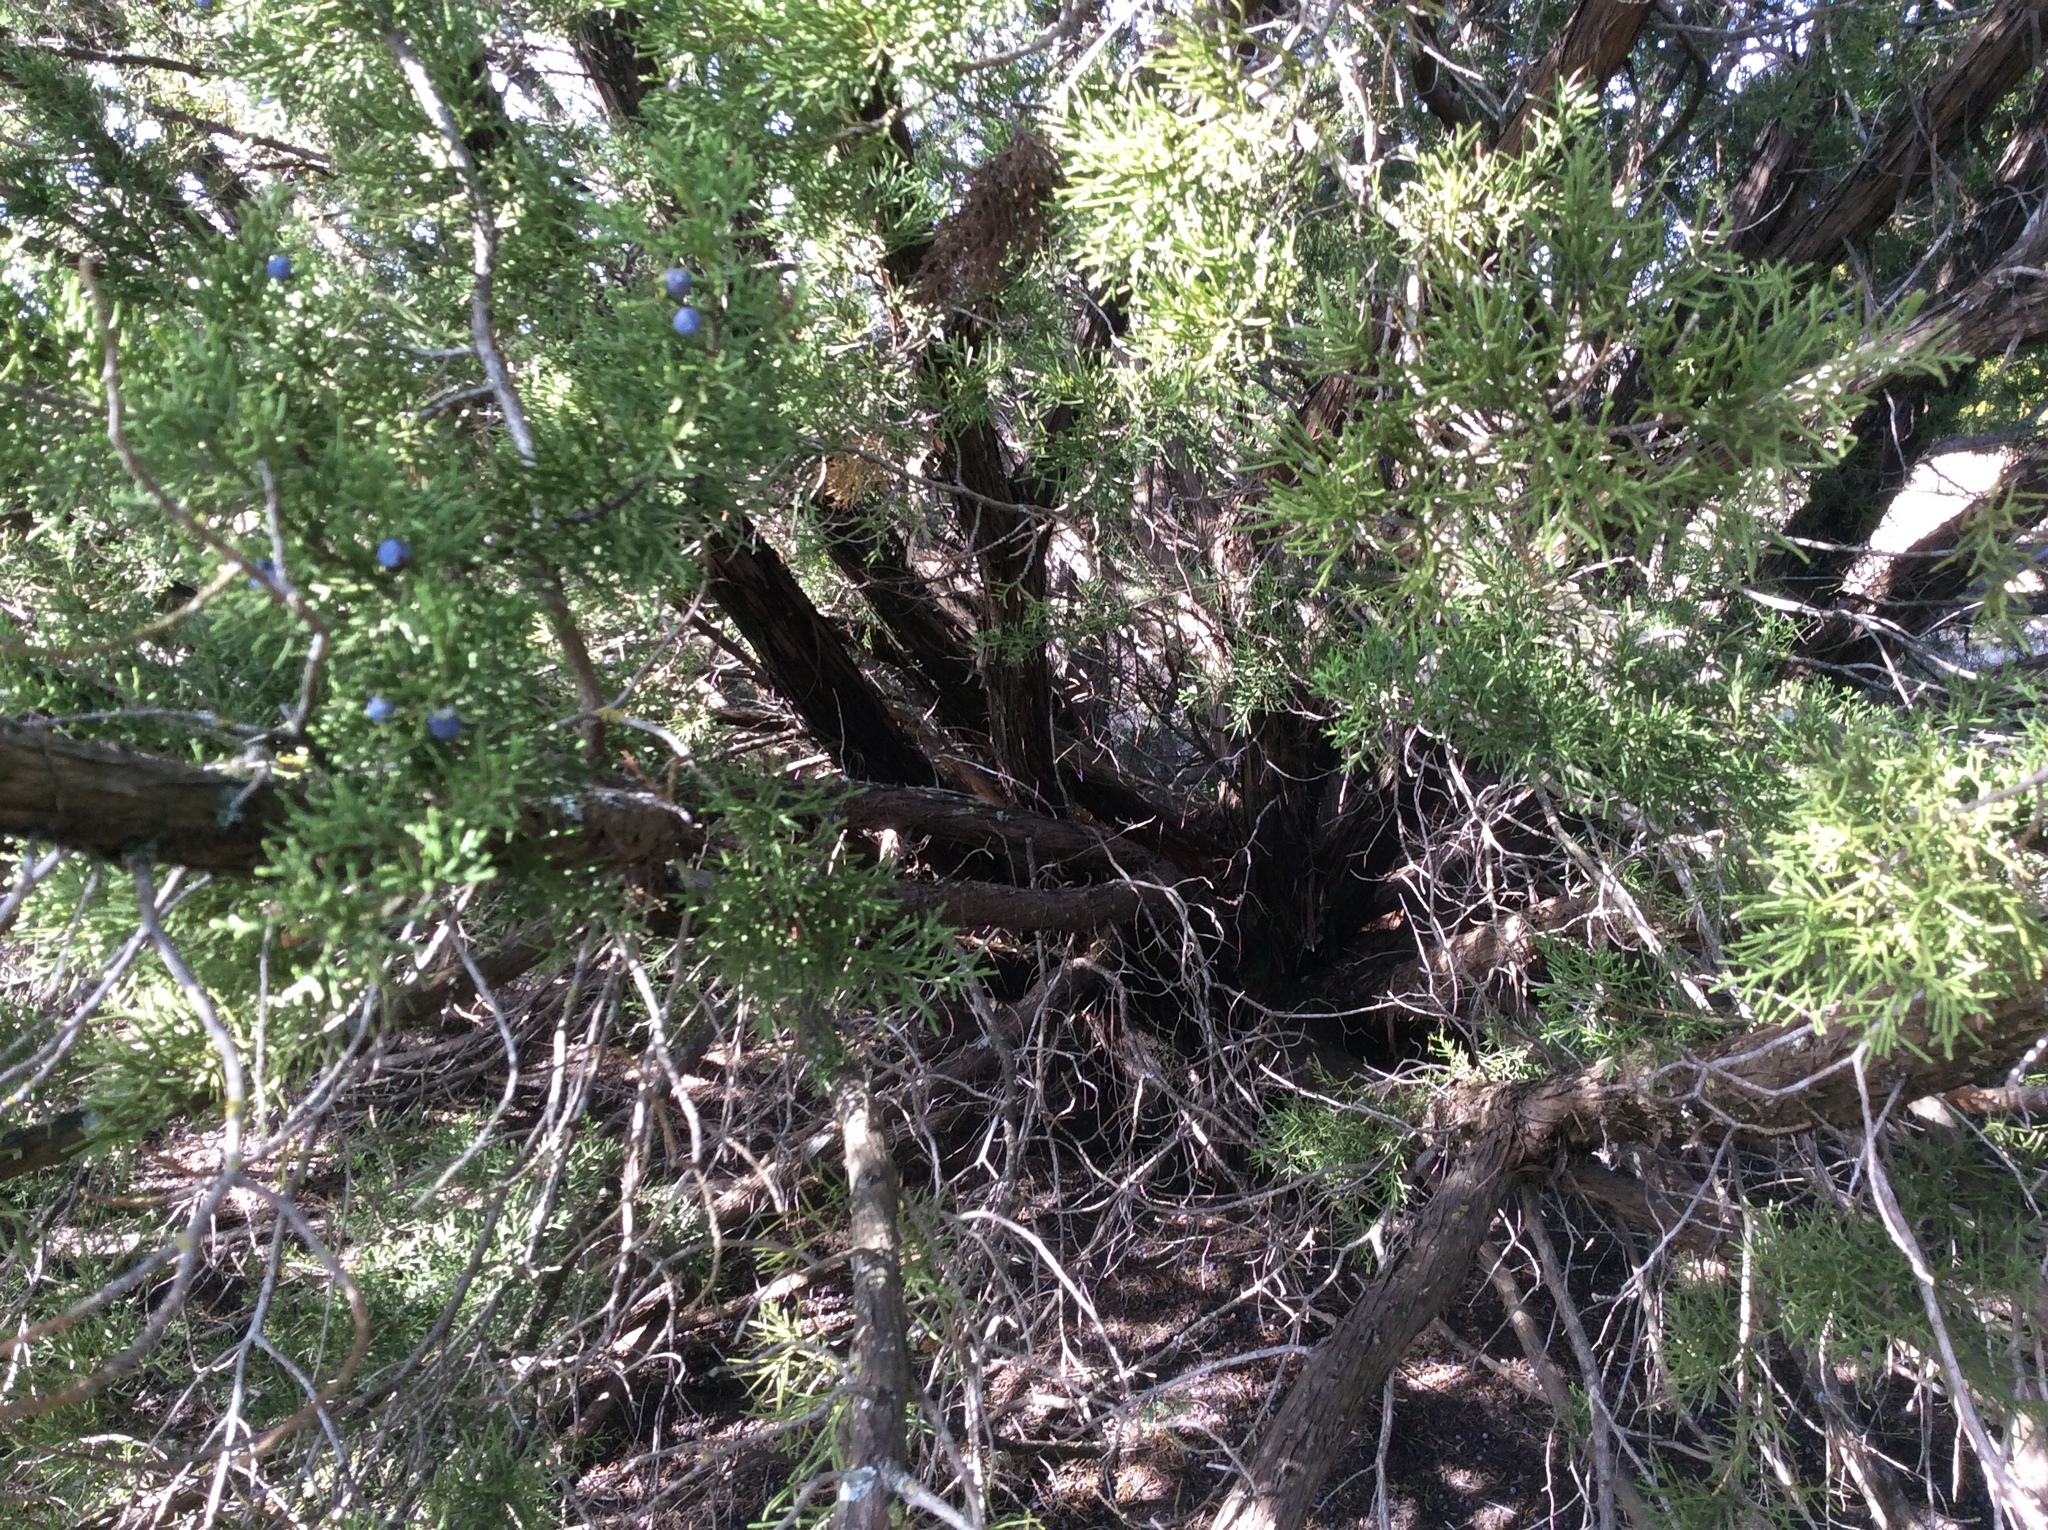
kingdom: Plantae
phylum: Tracheophyta
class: Pinopsida
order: Pinales
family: Cupressaceae
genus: Juniperus
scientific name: Juniperus ashei
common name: Mexican juniper
